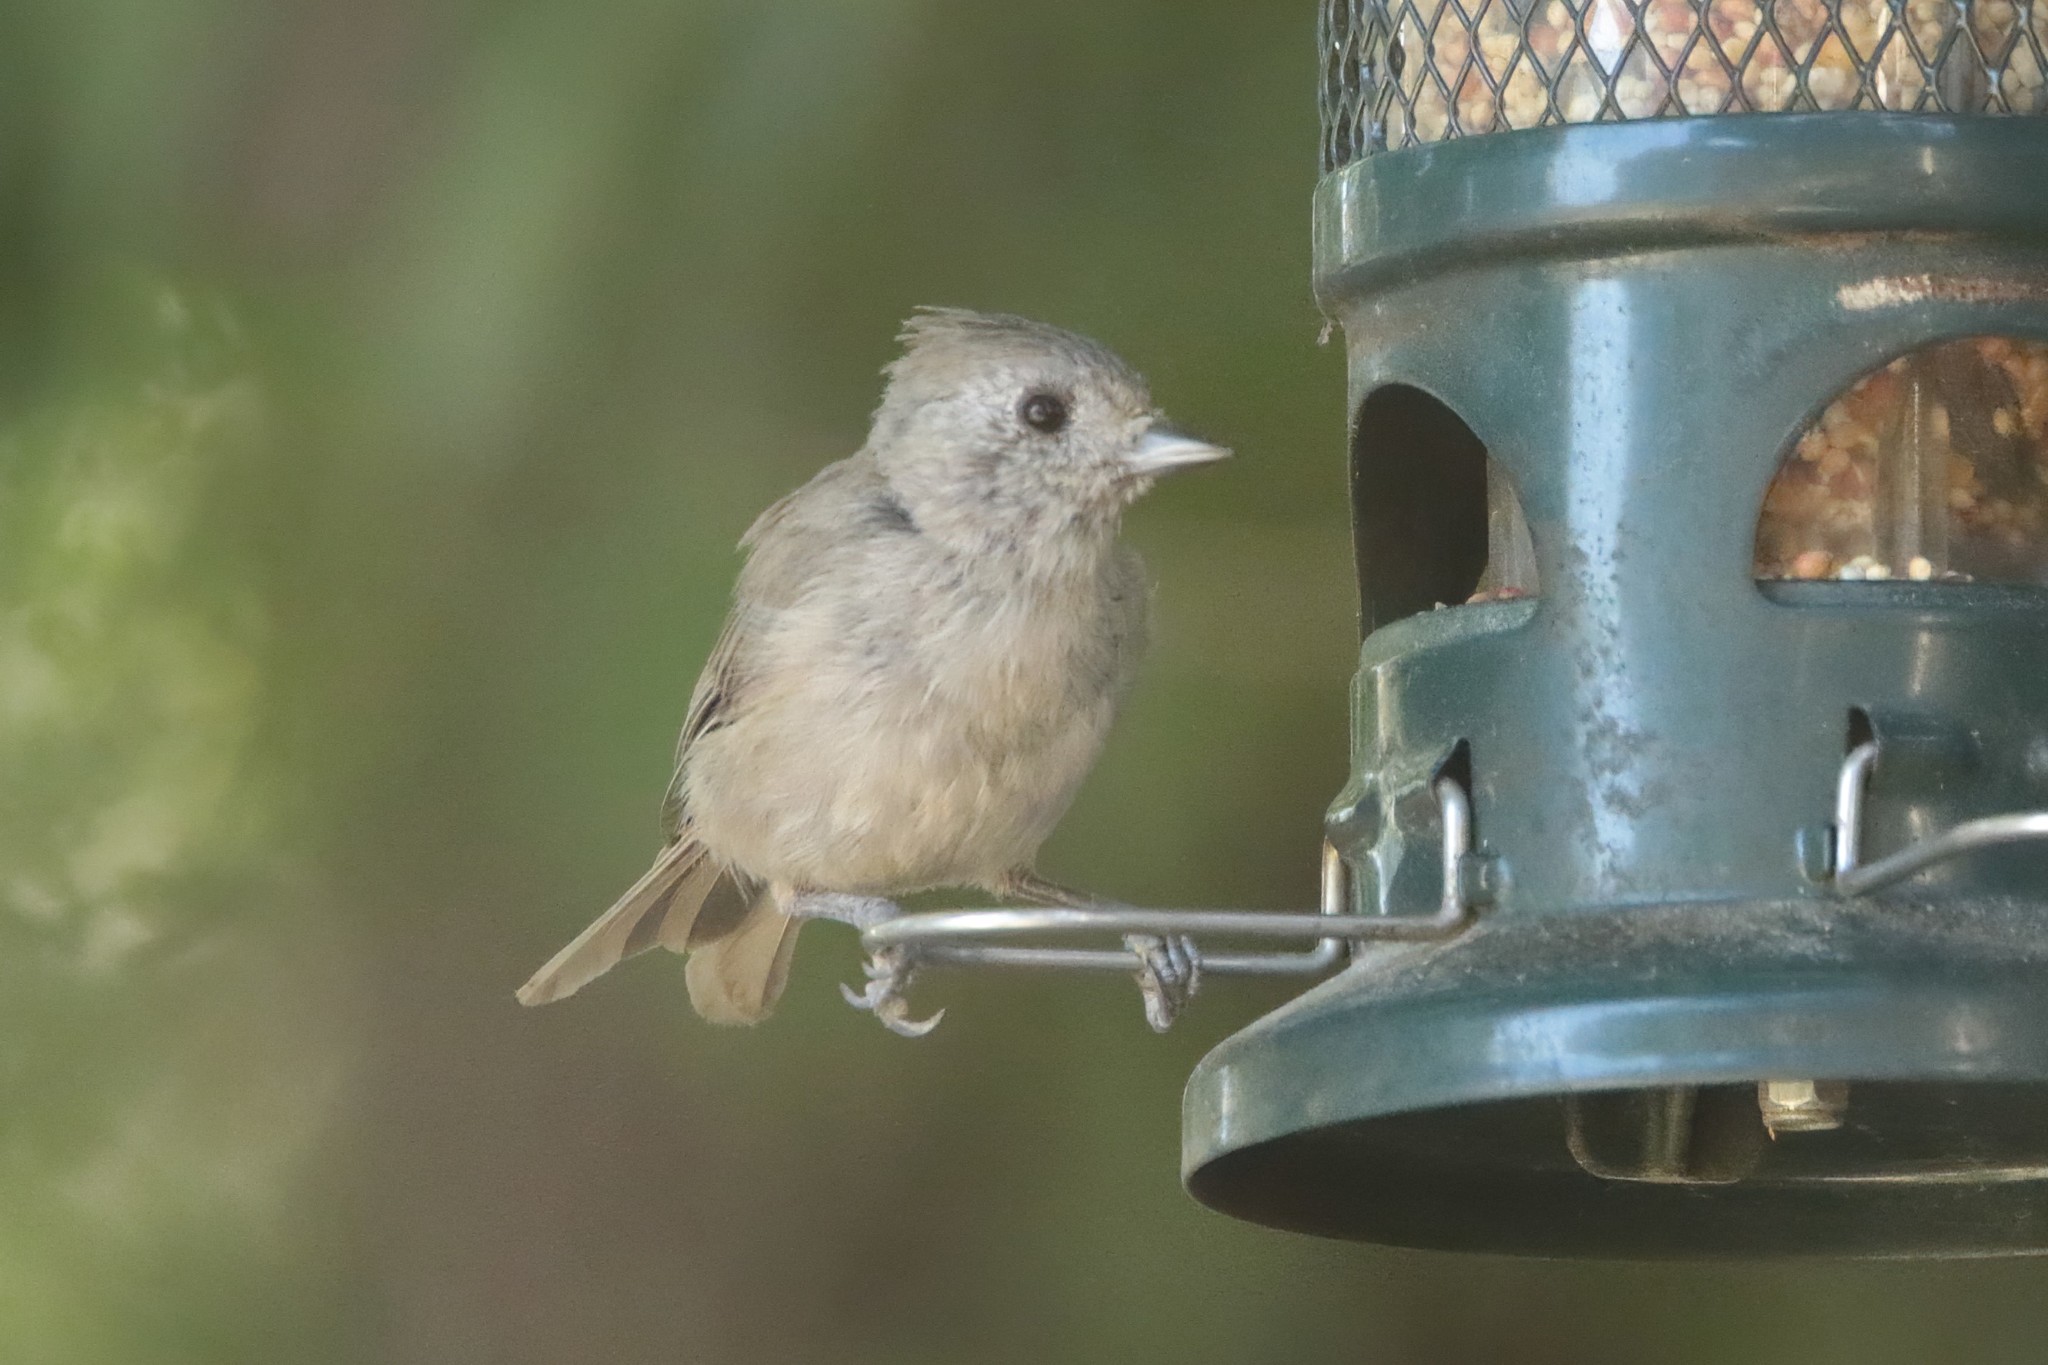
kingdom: Animalia
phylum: Chordata
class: Aves
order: Passeriformes
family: Paridae
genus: Baeolophus
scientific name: Baeolophus inornatus
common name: Oak titmouse
